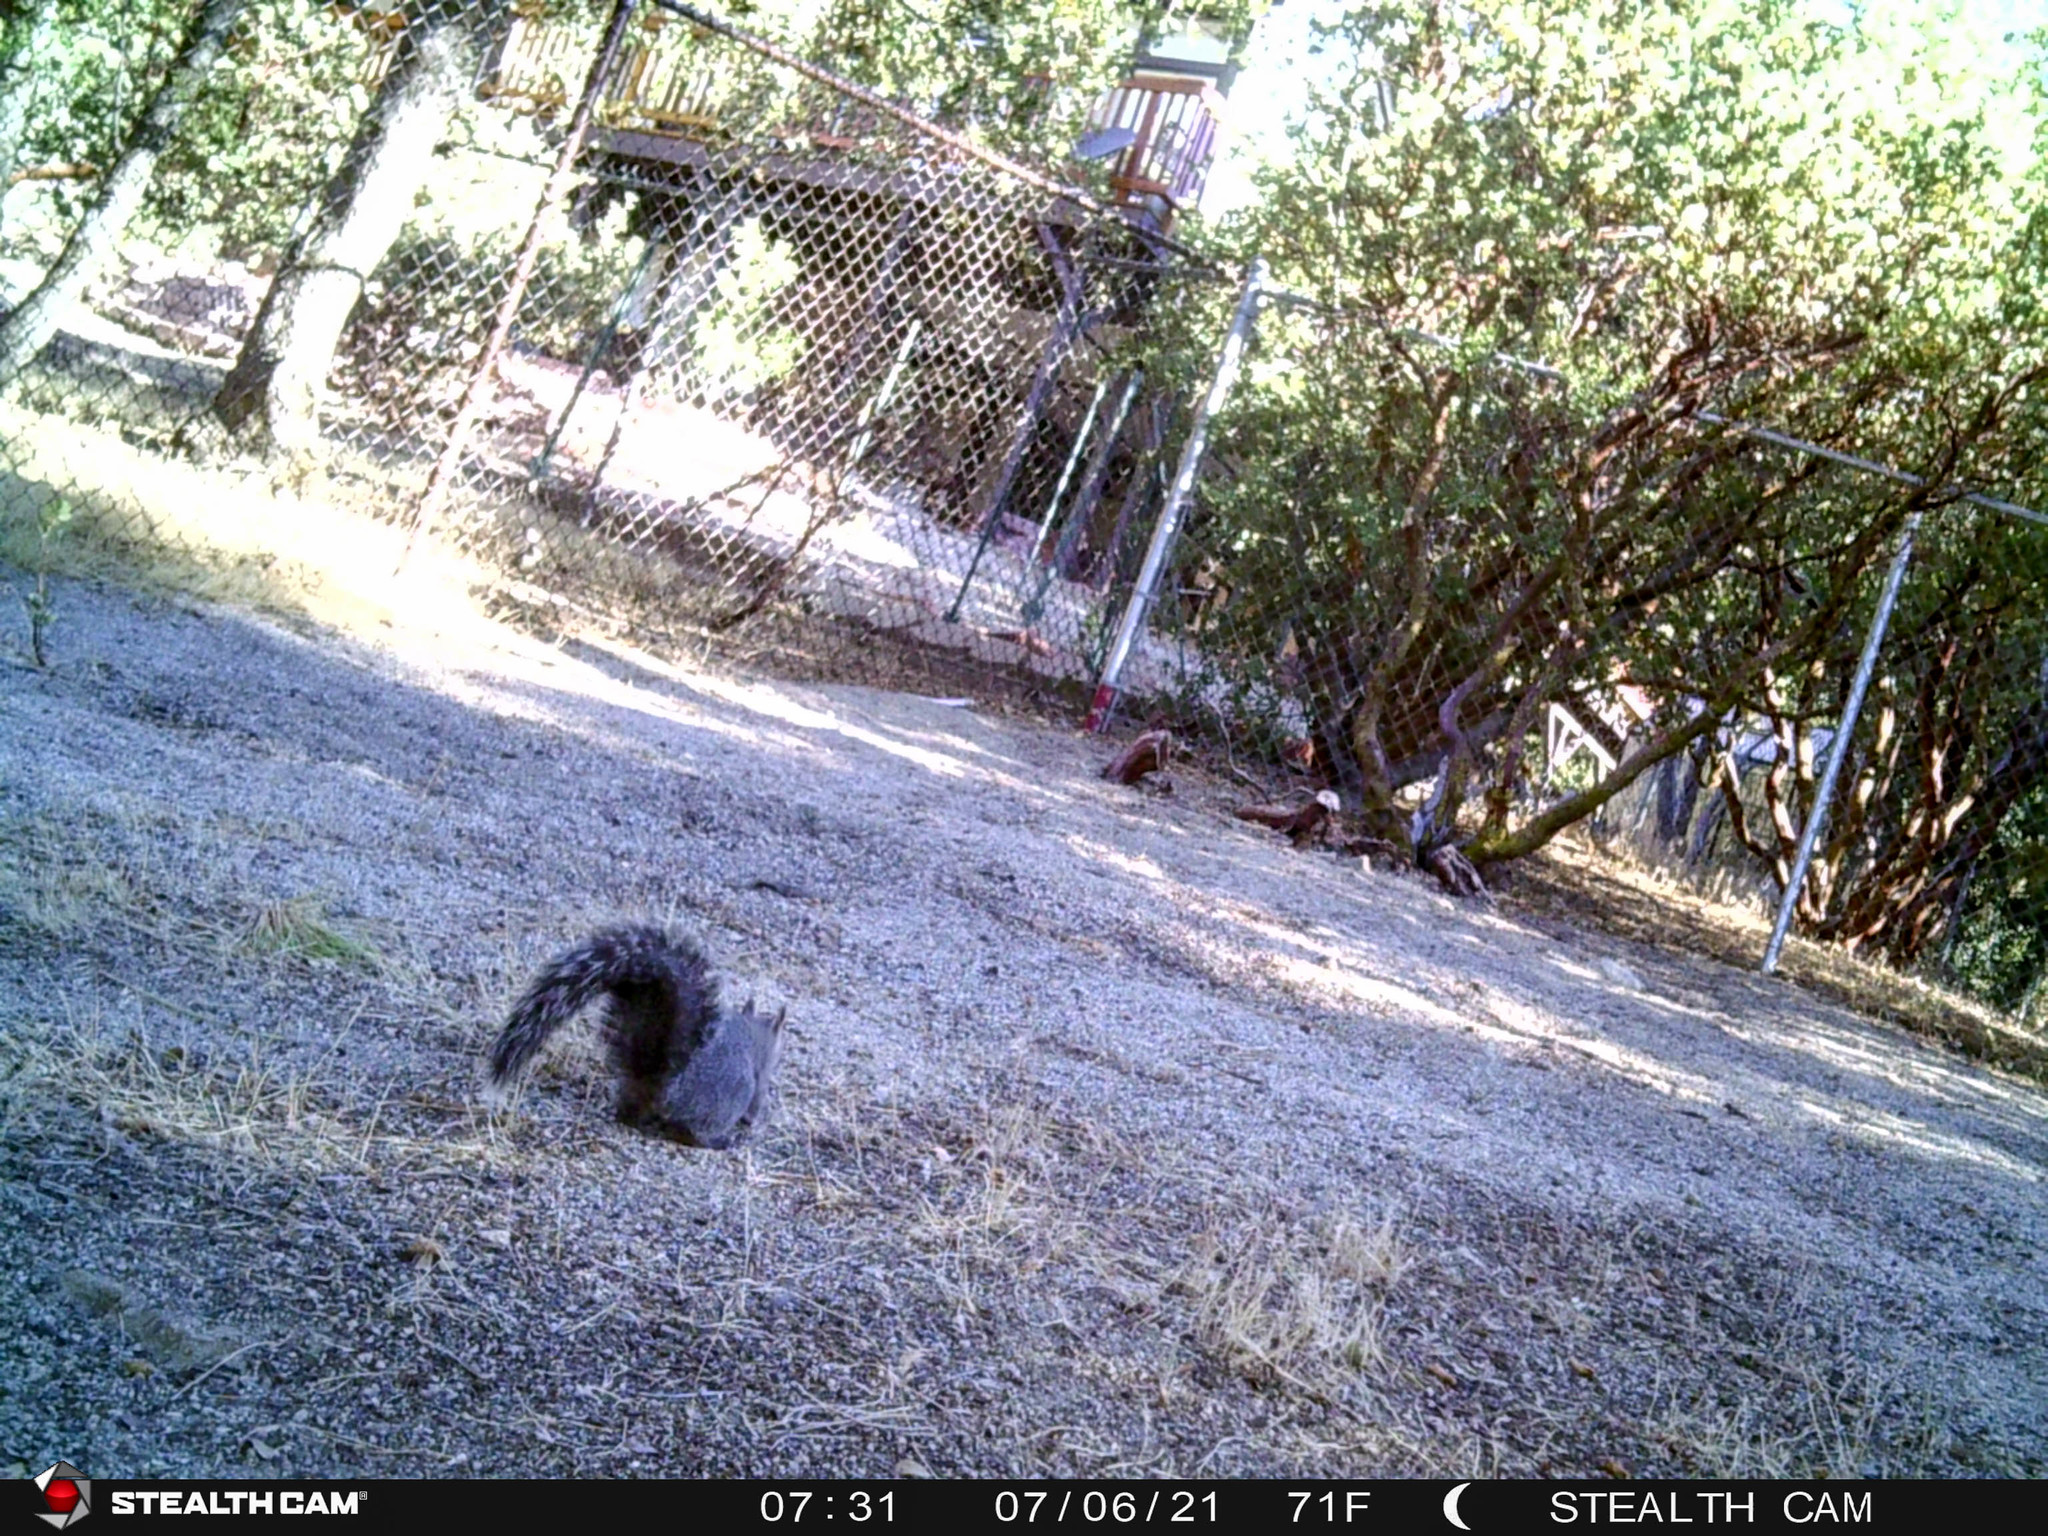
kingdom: Animalia
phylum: Chordata
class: Mammalia
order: Rodentia
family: Sciuridae
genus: Sciurus
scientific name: Sciurus griseus
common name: Western gray squirrel
